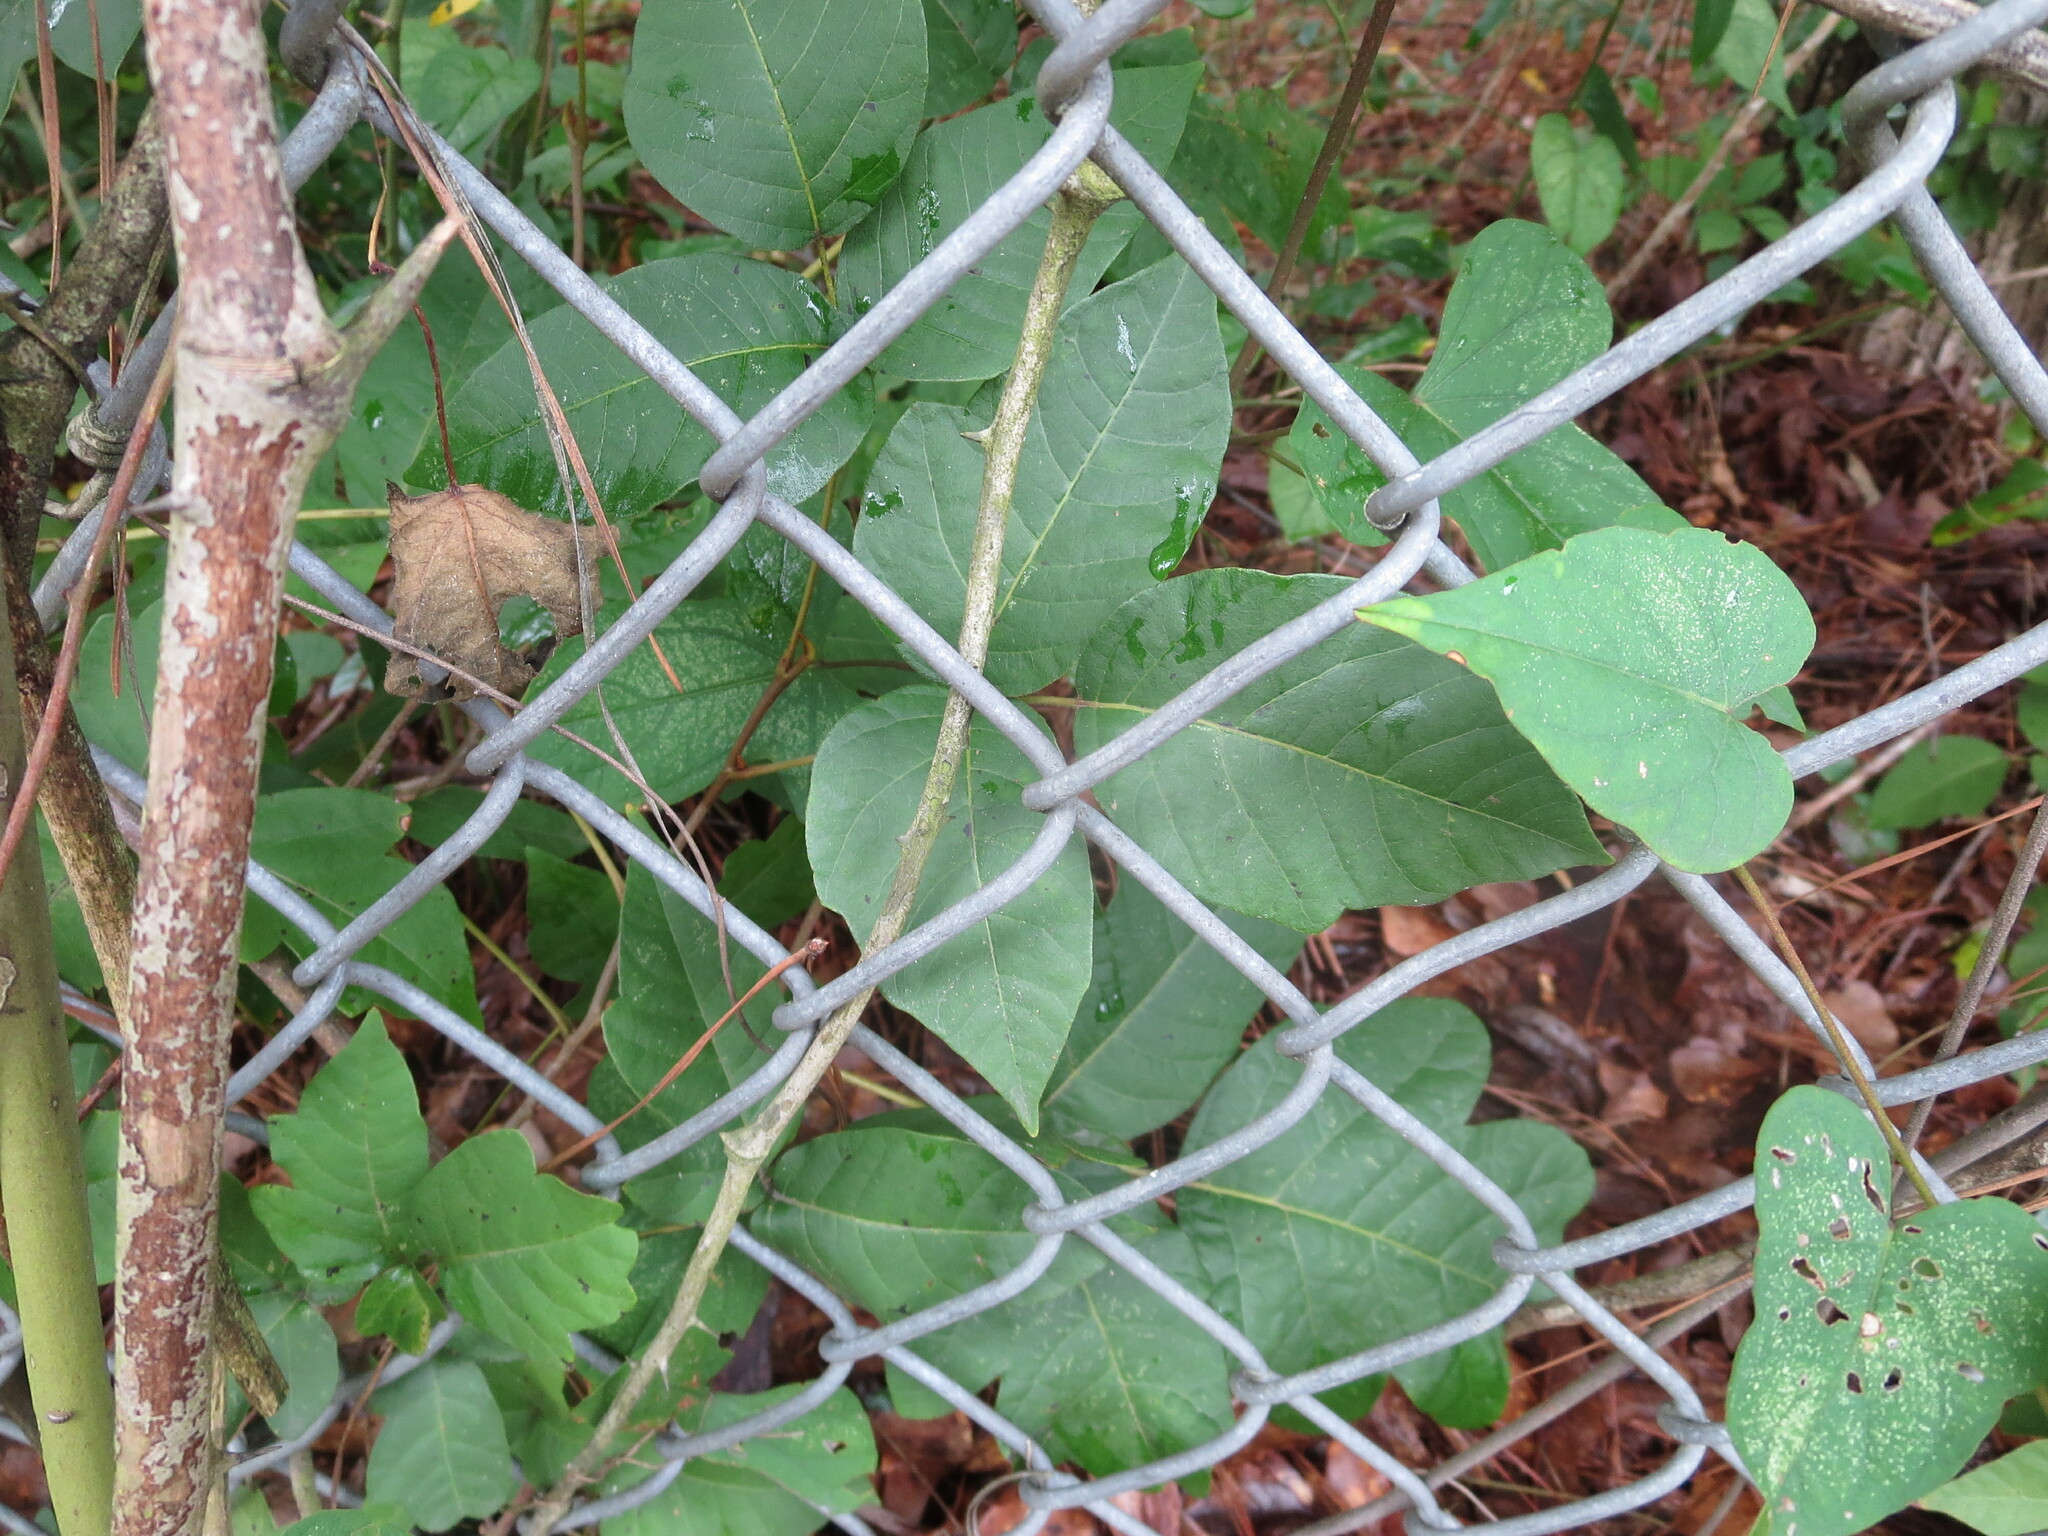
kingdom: Plantae
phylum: Tracheophyta
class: Magnoliopsida
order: Sapindales
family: Anacardiaceae
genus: Toxicodendron
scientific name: Toxicodendron radicans
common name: Poison ivy
